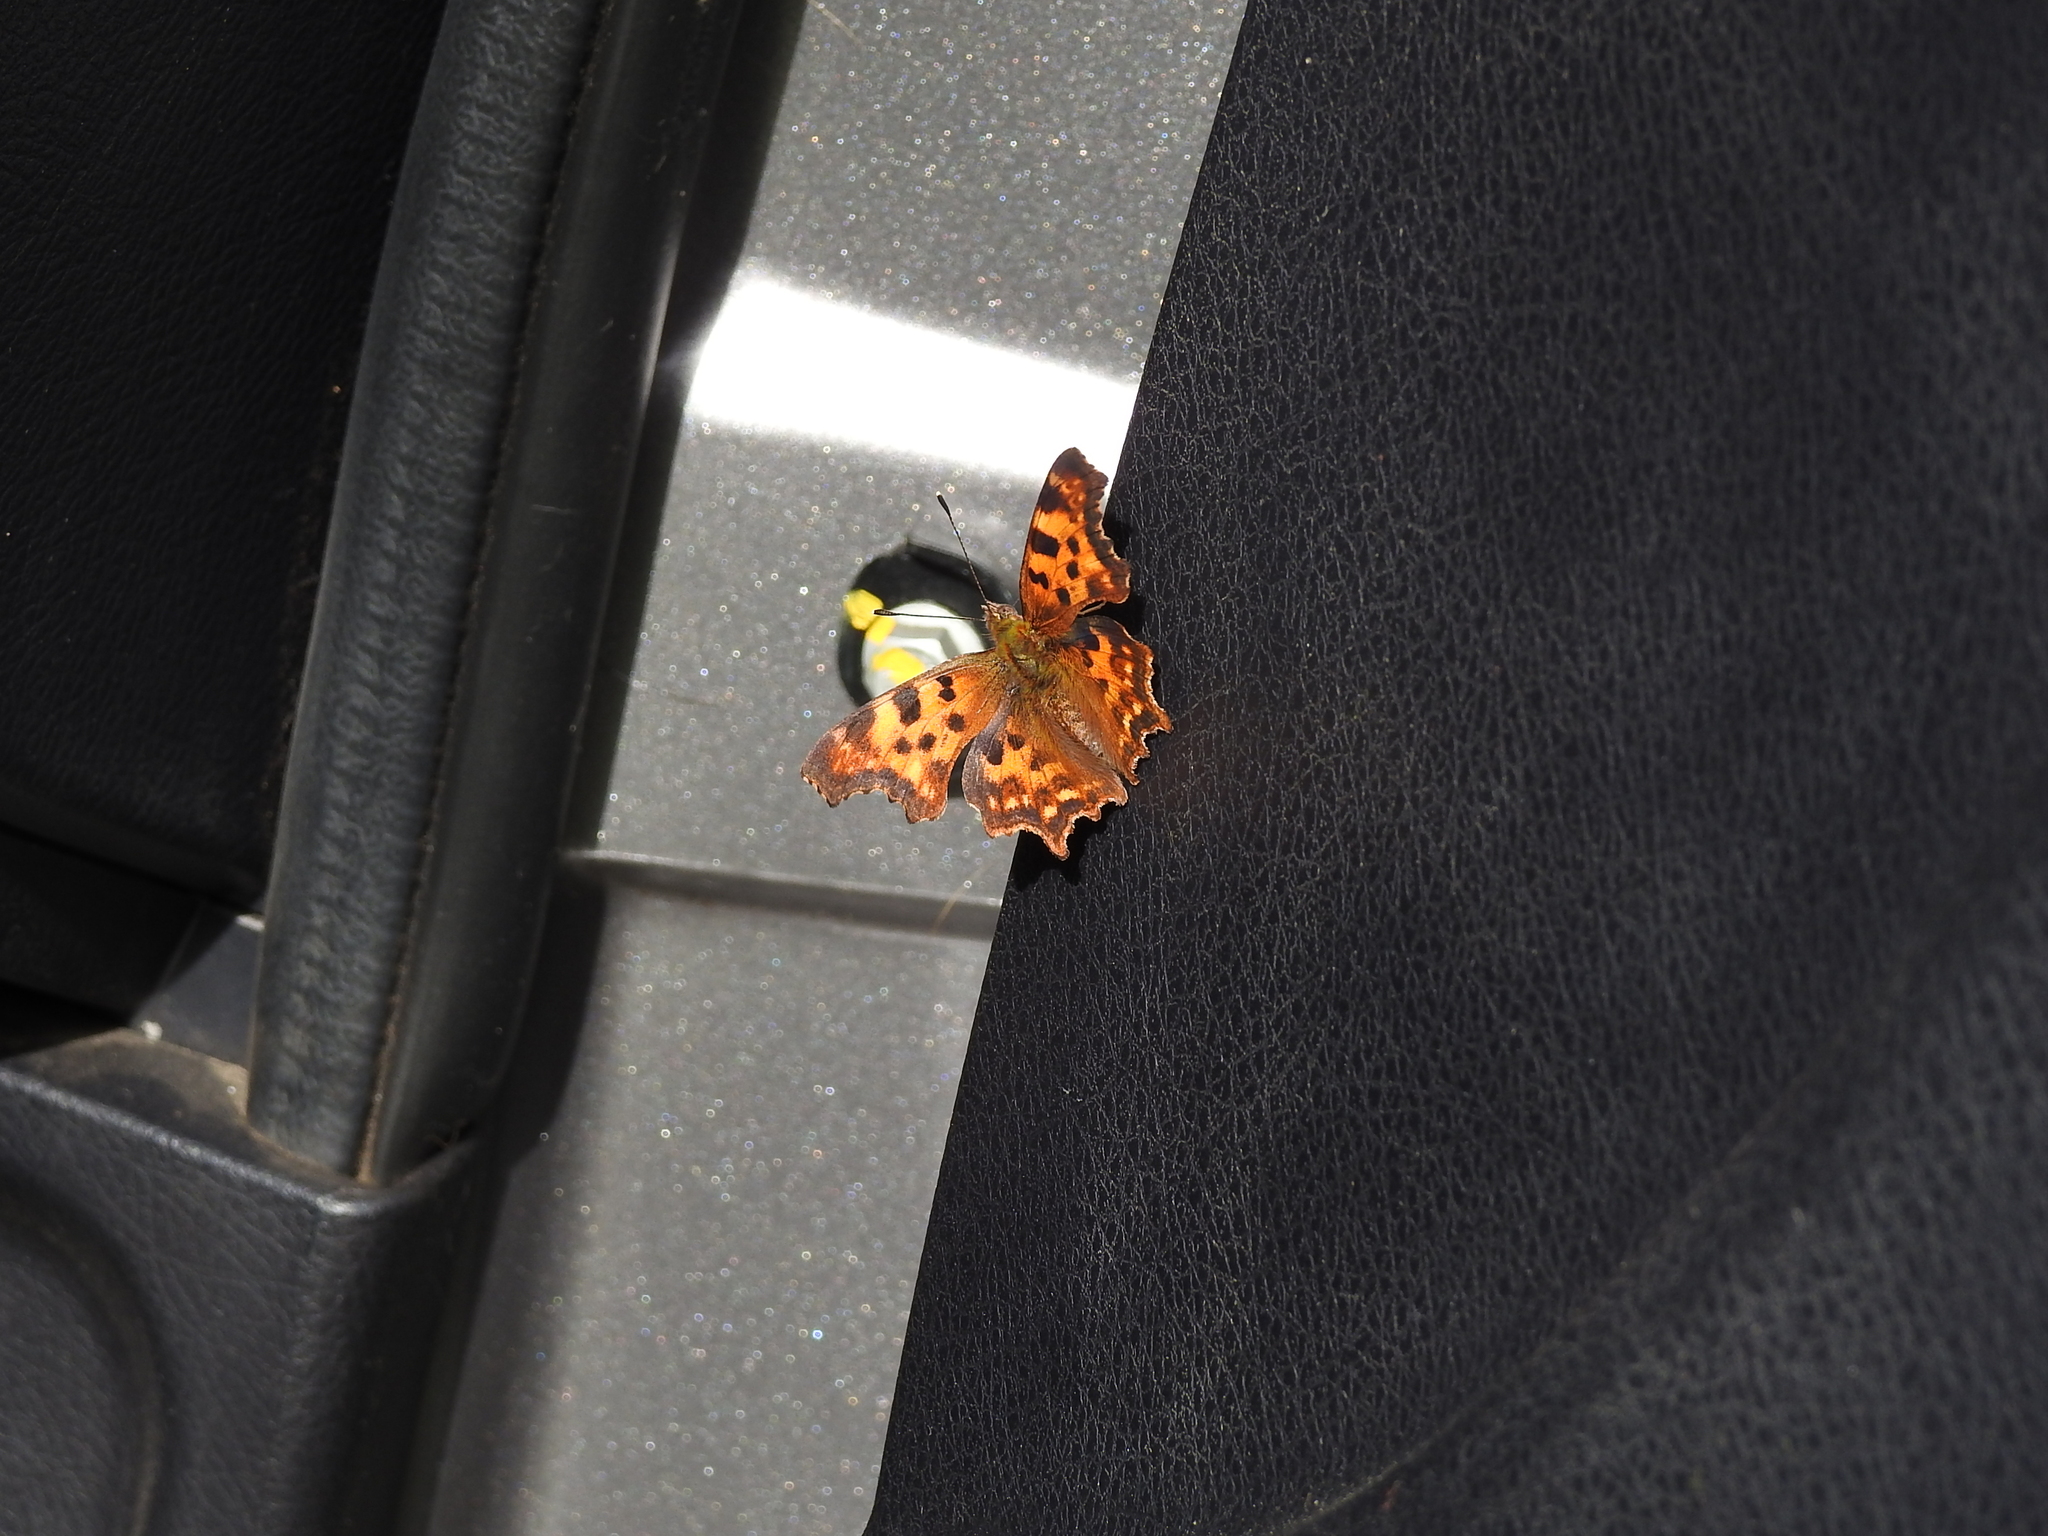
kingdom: Animalia
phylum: Arthropoda
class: Insecta
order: Lepidoptera
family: Nymphalidae
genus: Polygonia
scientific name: Polygonia c-album
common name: Comma
